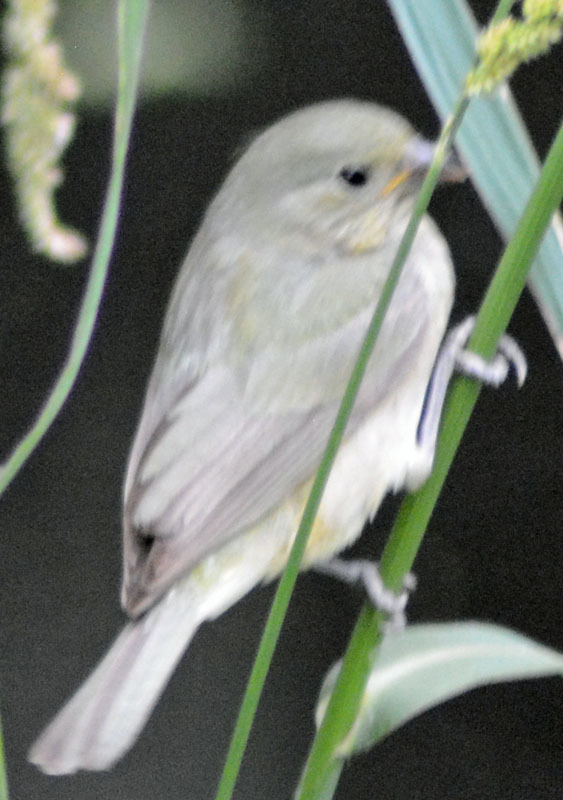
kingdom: Animalia
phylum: Chordata
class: Aves
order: Passeriformes
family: Cardinalidae
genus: Passerina
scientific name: Passerina ciris
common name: Painted bunting
